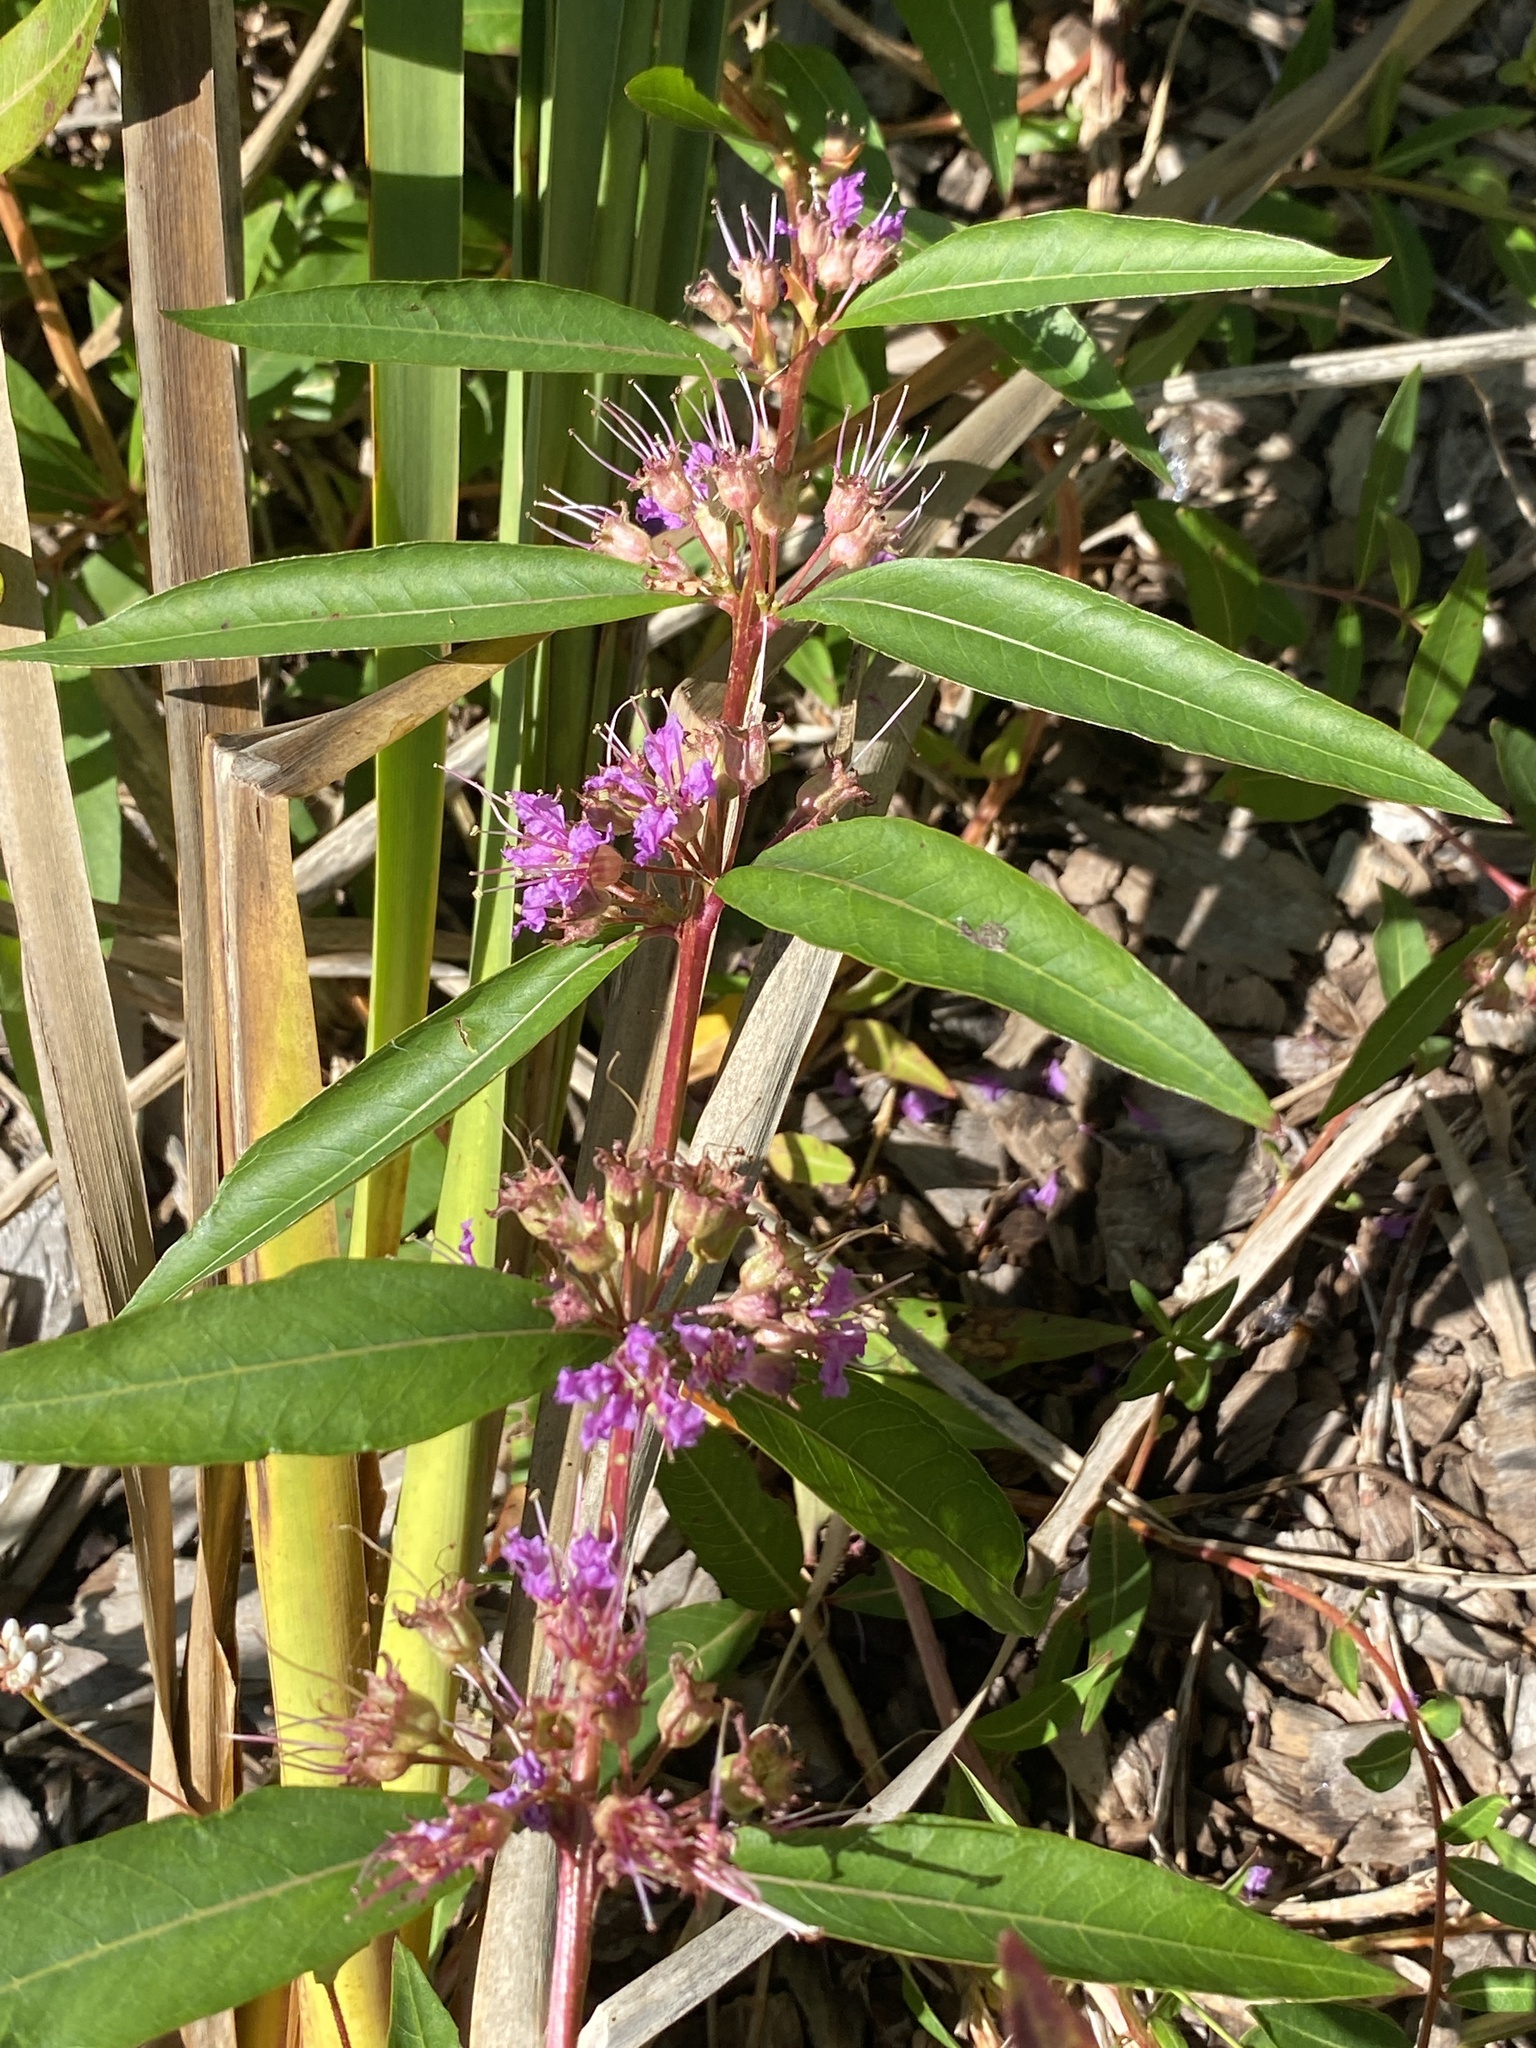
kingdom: Plantae
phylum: Tracheophyta
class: Magnoliopsida
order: Myrtales
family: Lythraceae
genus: Decodon
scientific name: Decodon verticillatus
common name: Hairy swamp loosestrife
